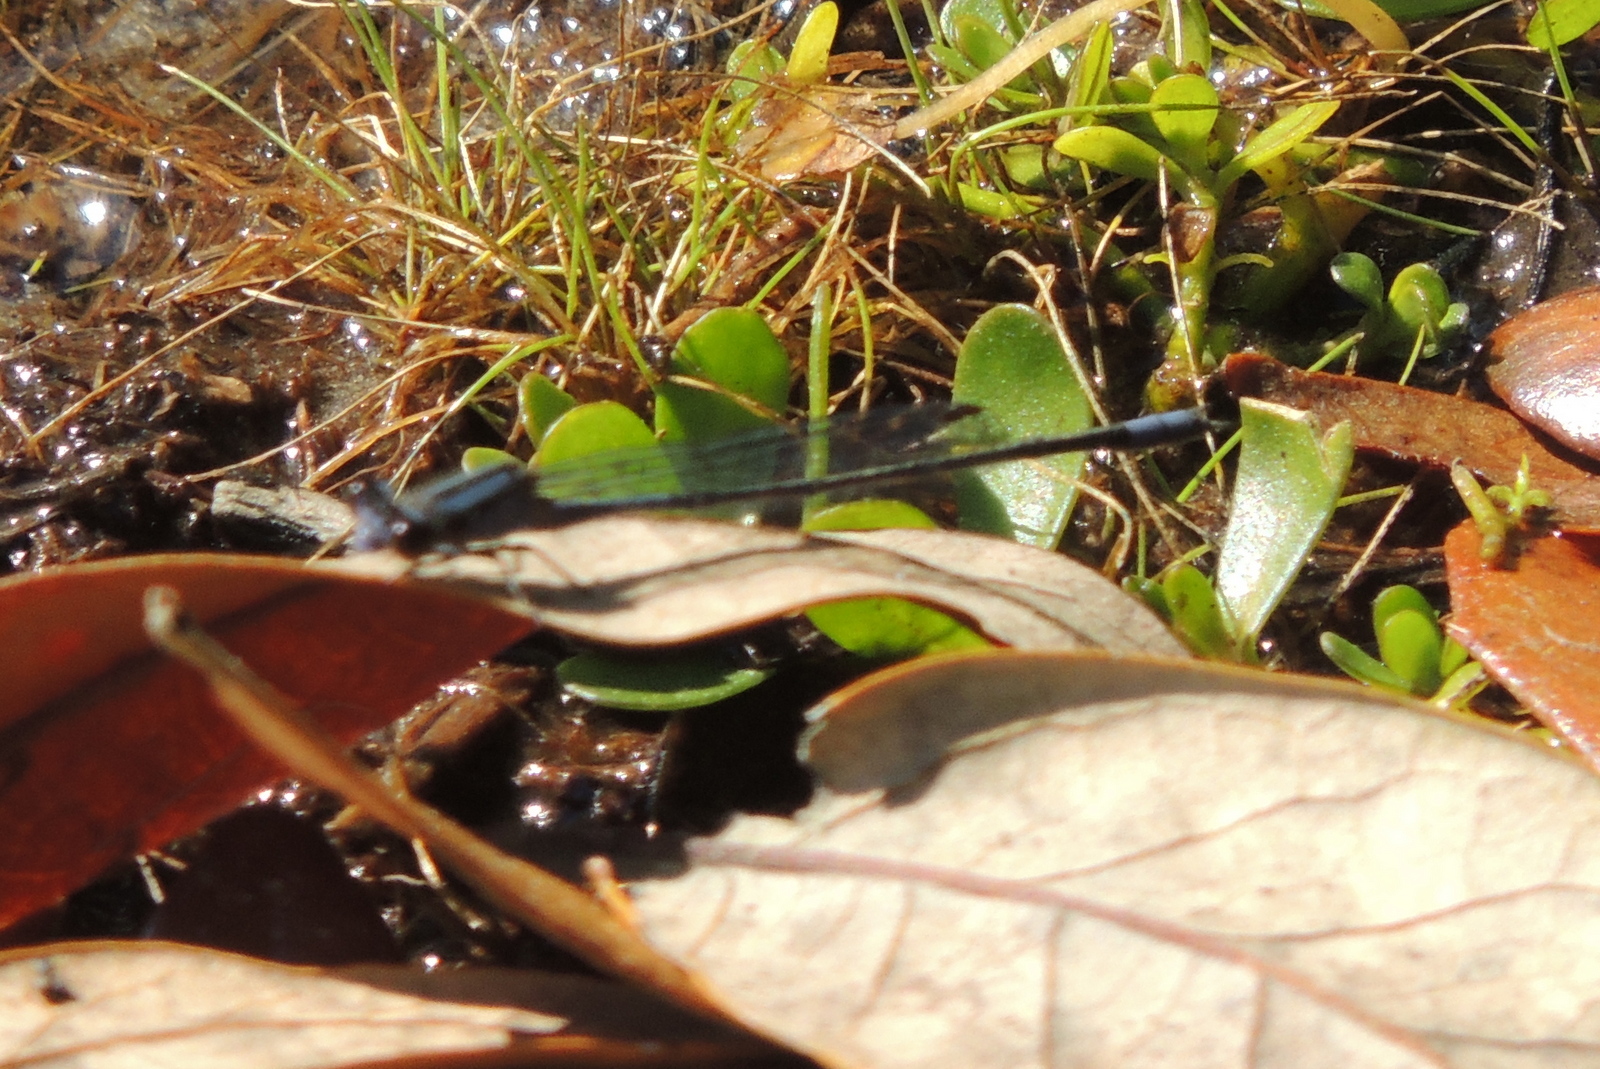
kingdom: Animalia
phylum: Arthropoda
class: Insecta
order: Odonata
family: Coenagrionidae
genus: Enallagma
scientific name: Enallagma cardenium
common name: Purple bluet
